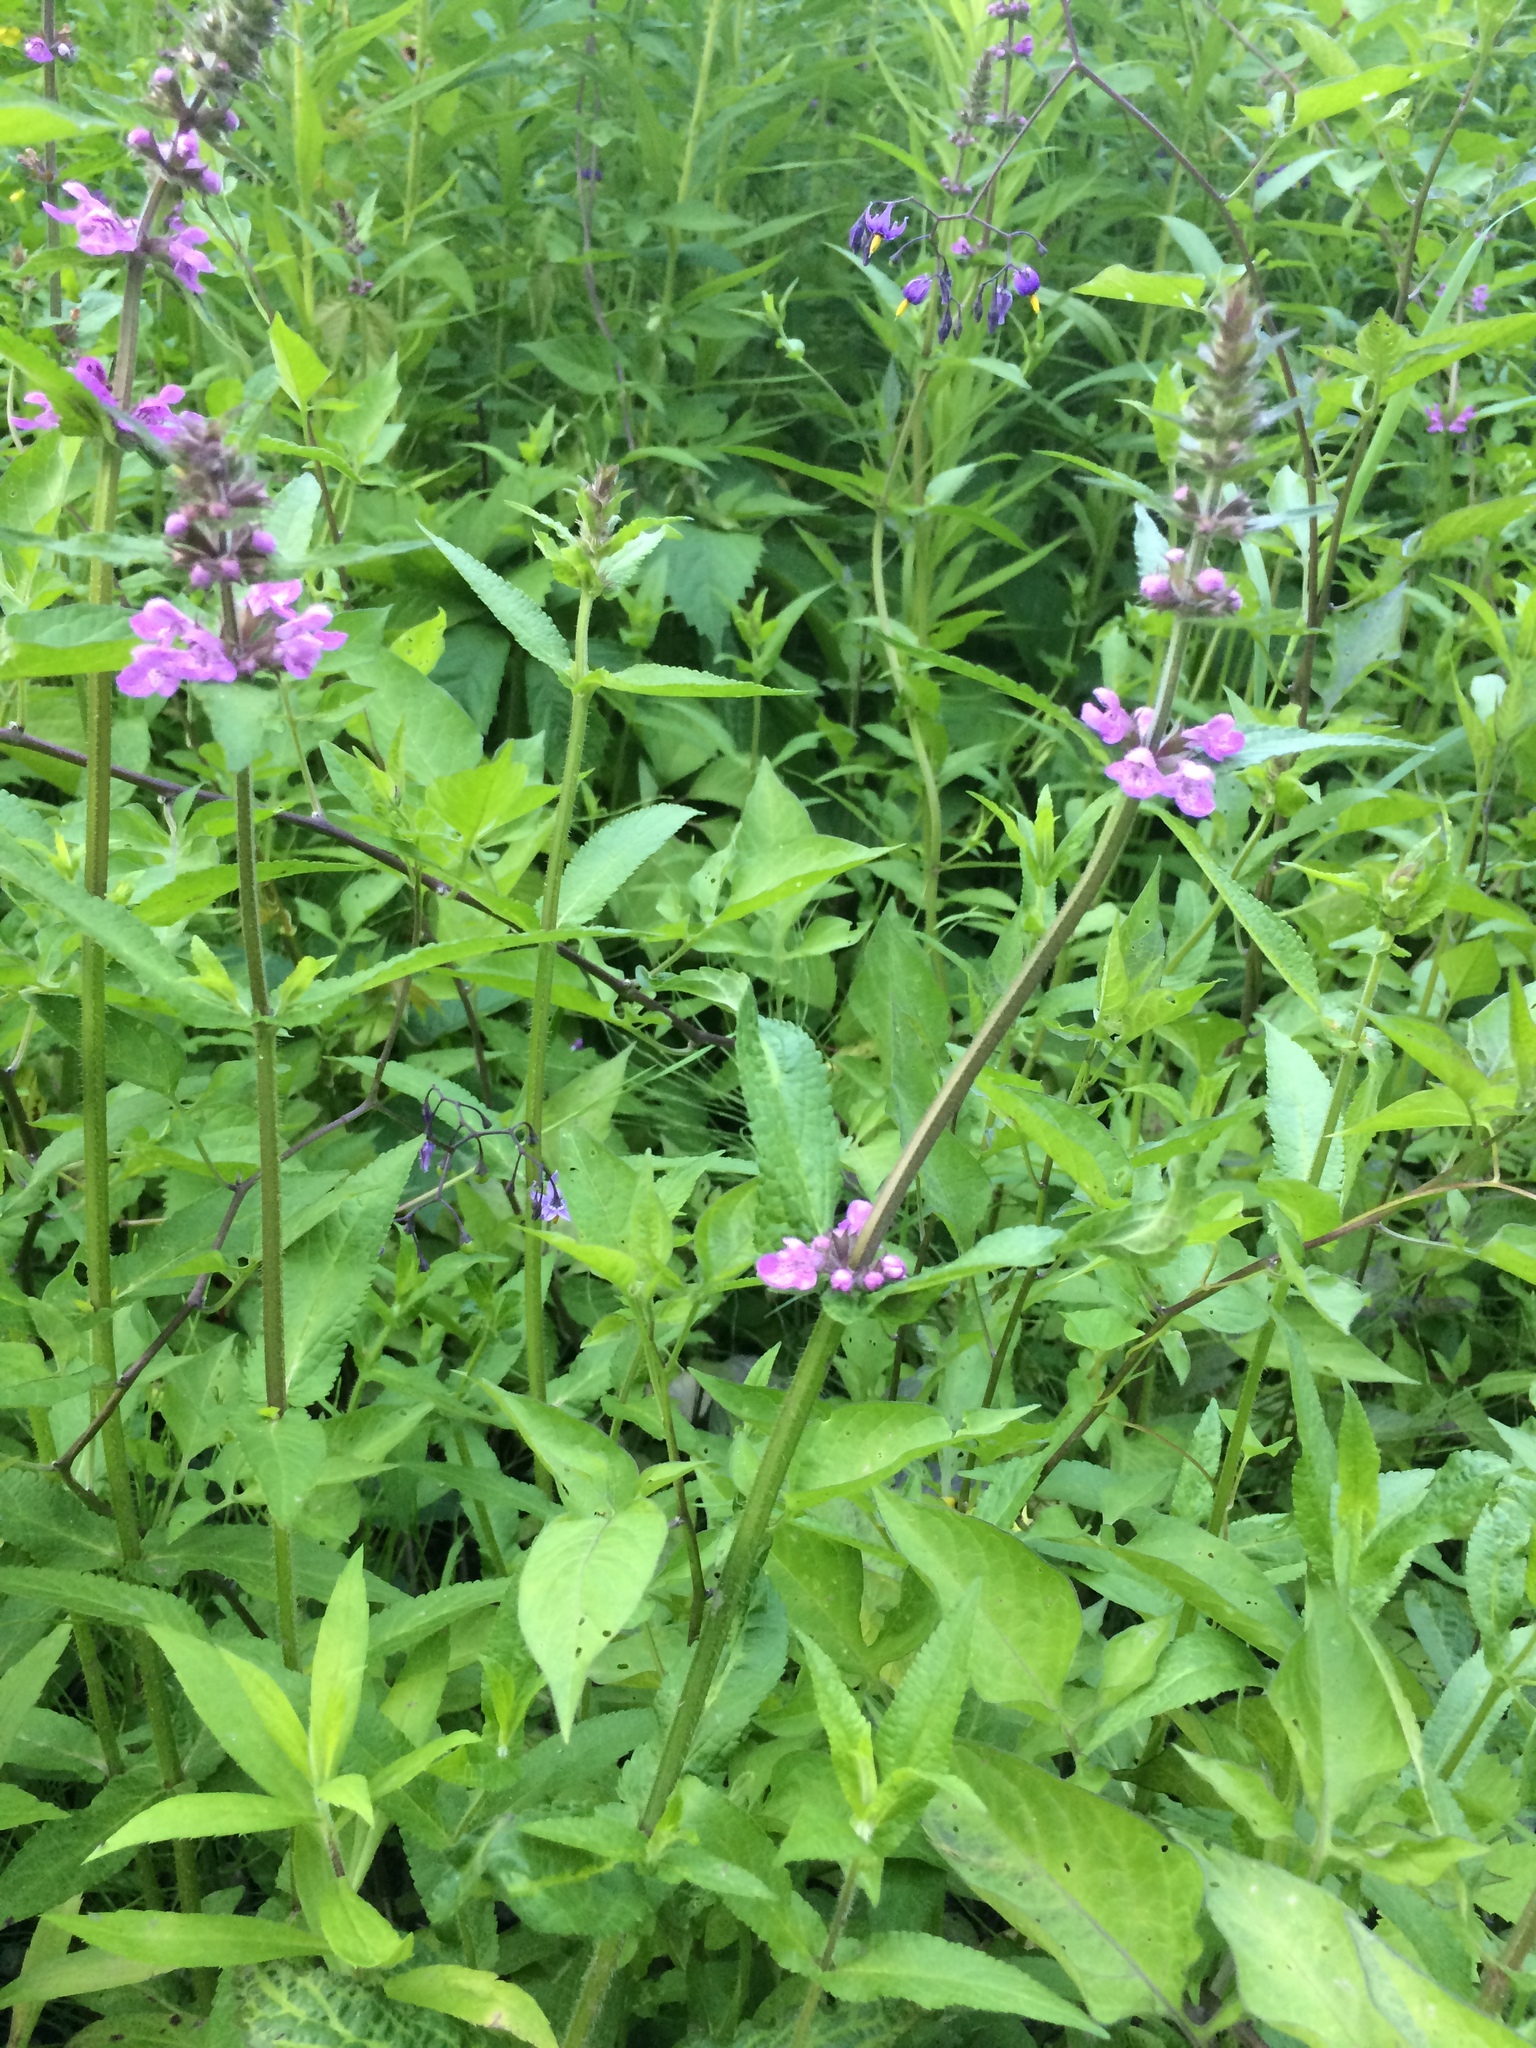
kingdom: Plantae
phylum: Tracheophyta
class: Magnoliopsida
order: Lamiales
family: Lamiaceae
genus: Stachys
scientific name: Stachys palustris
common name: Marsh woundwort
